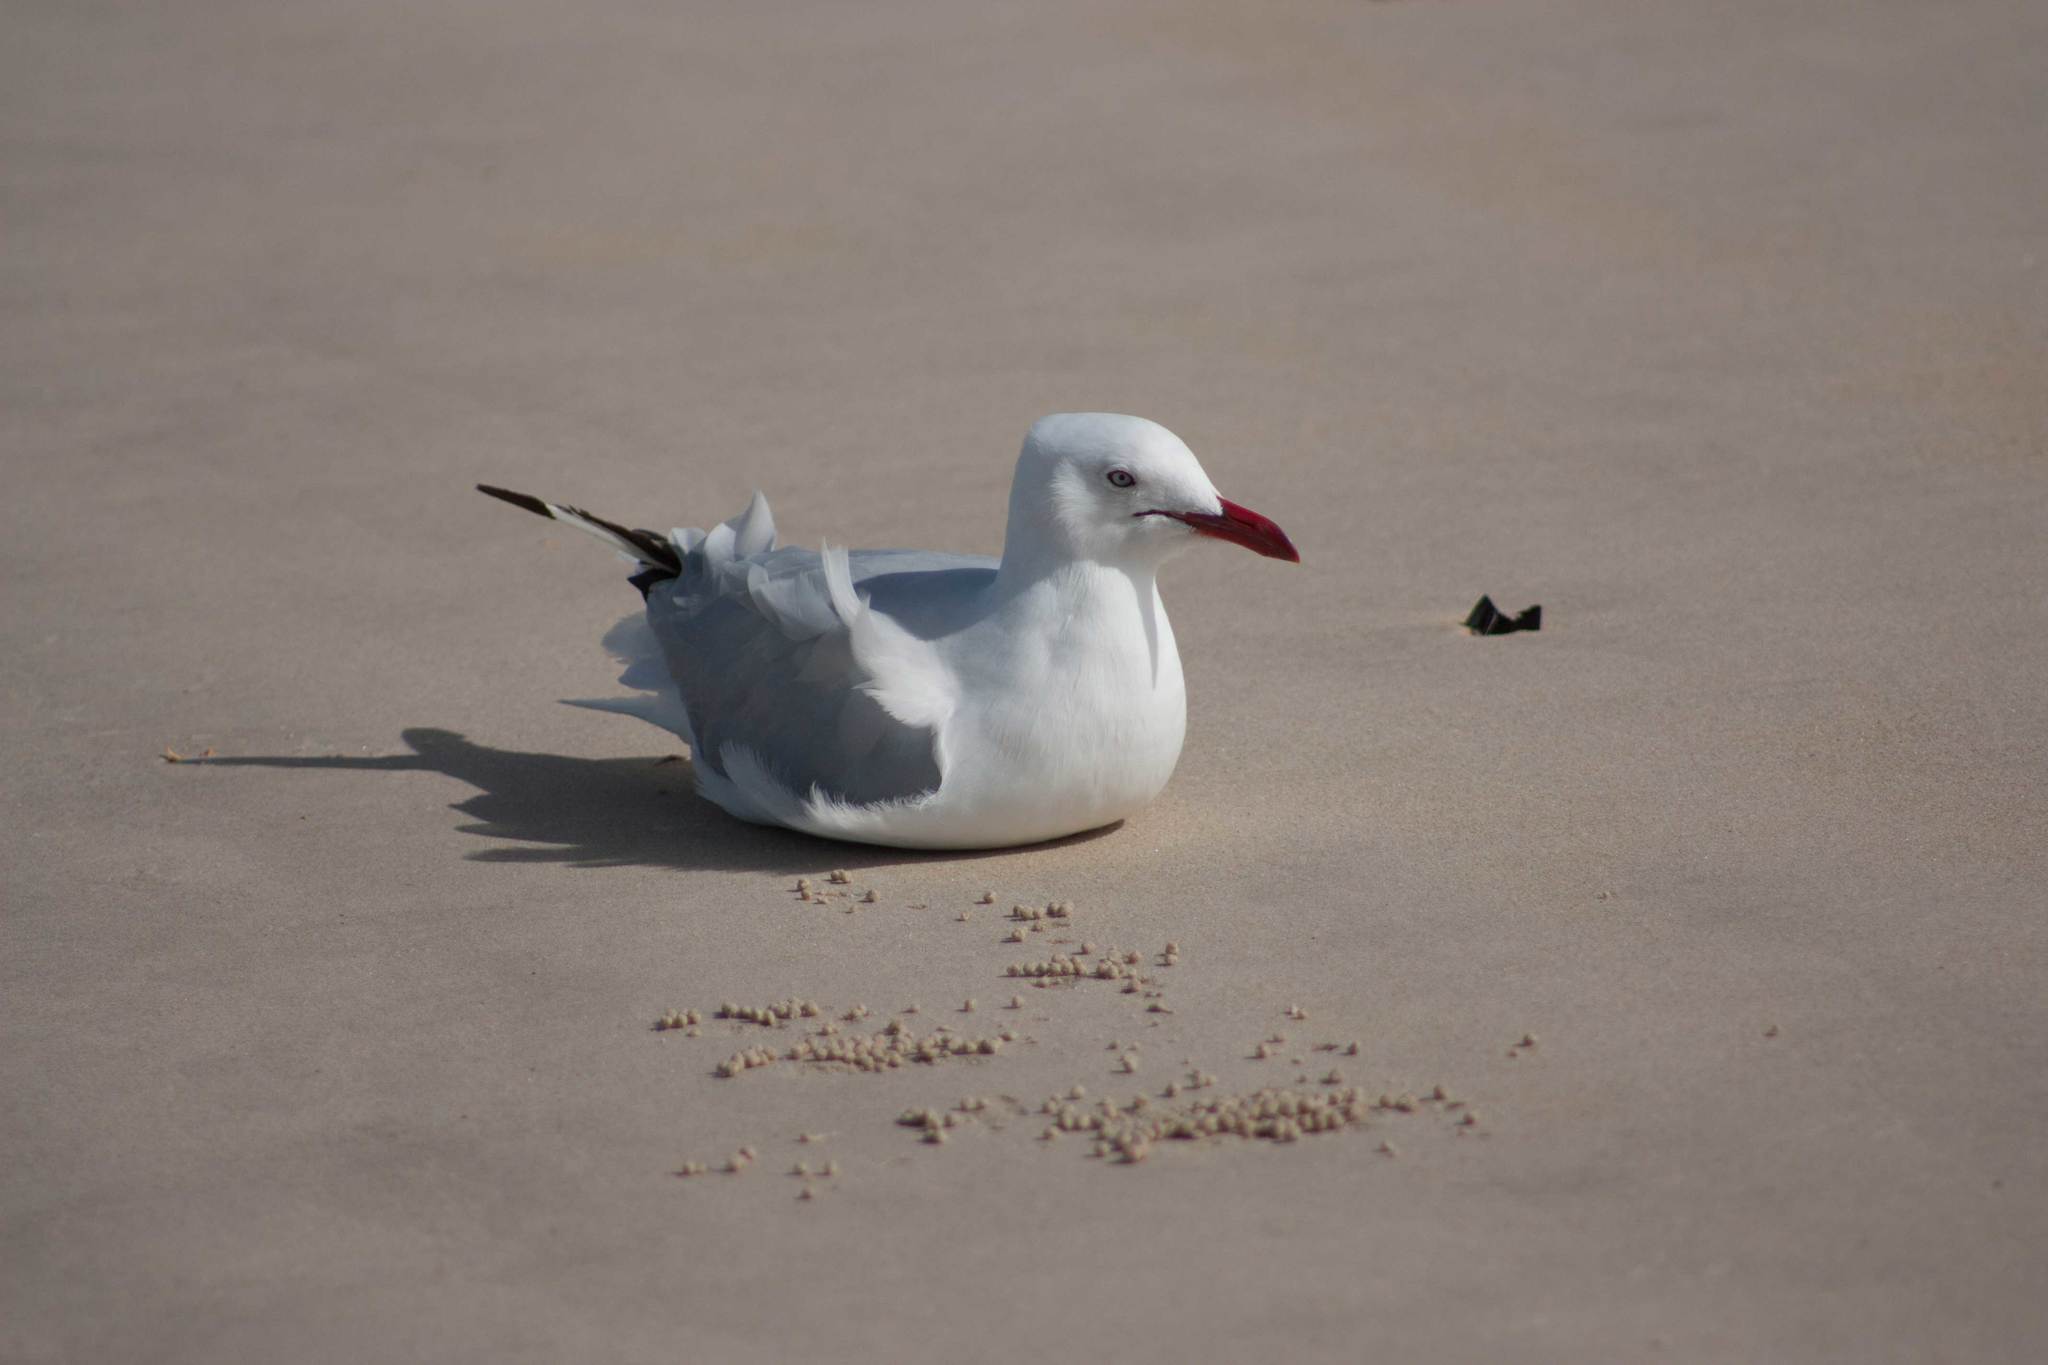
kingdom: Animalia
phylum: Chordata
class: Aves
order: Charadriiformes
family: Laridae
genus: Chroicocephalus
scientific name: Chroicocephalus novaehollandiae
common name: Silver gull
